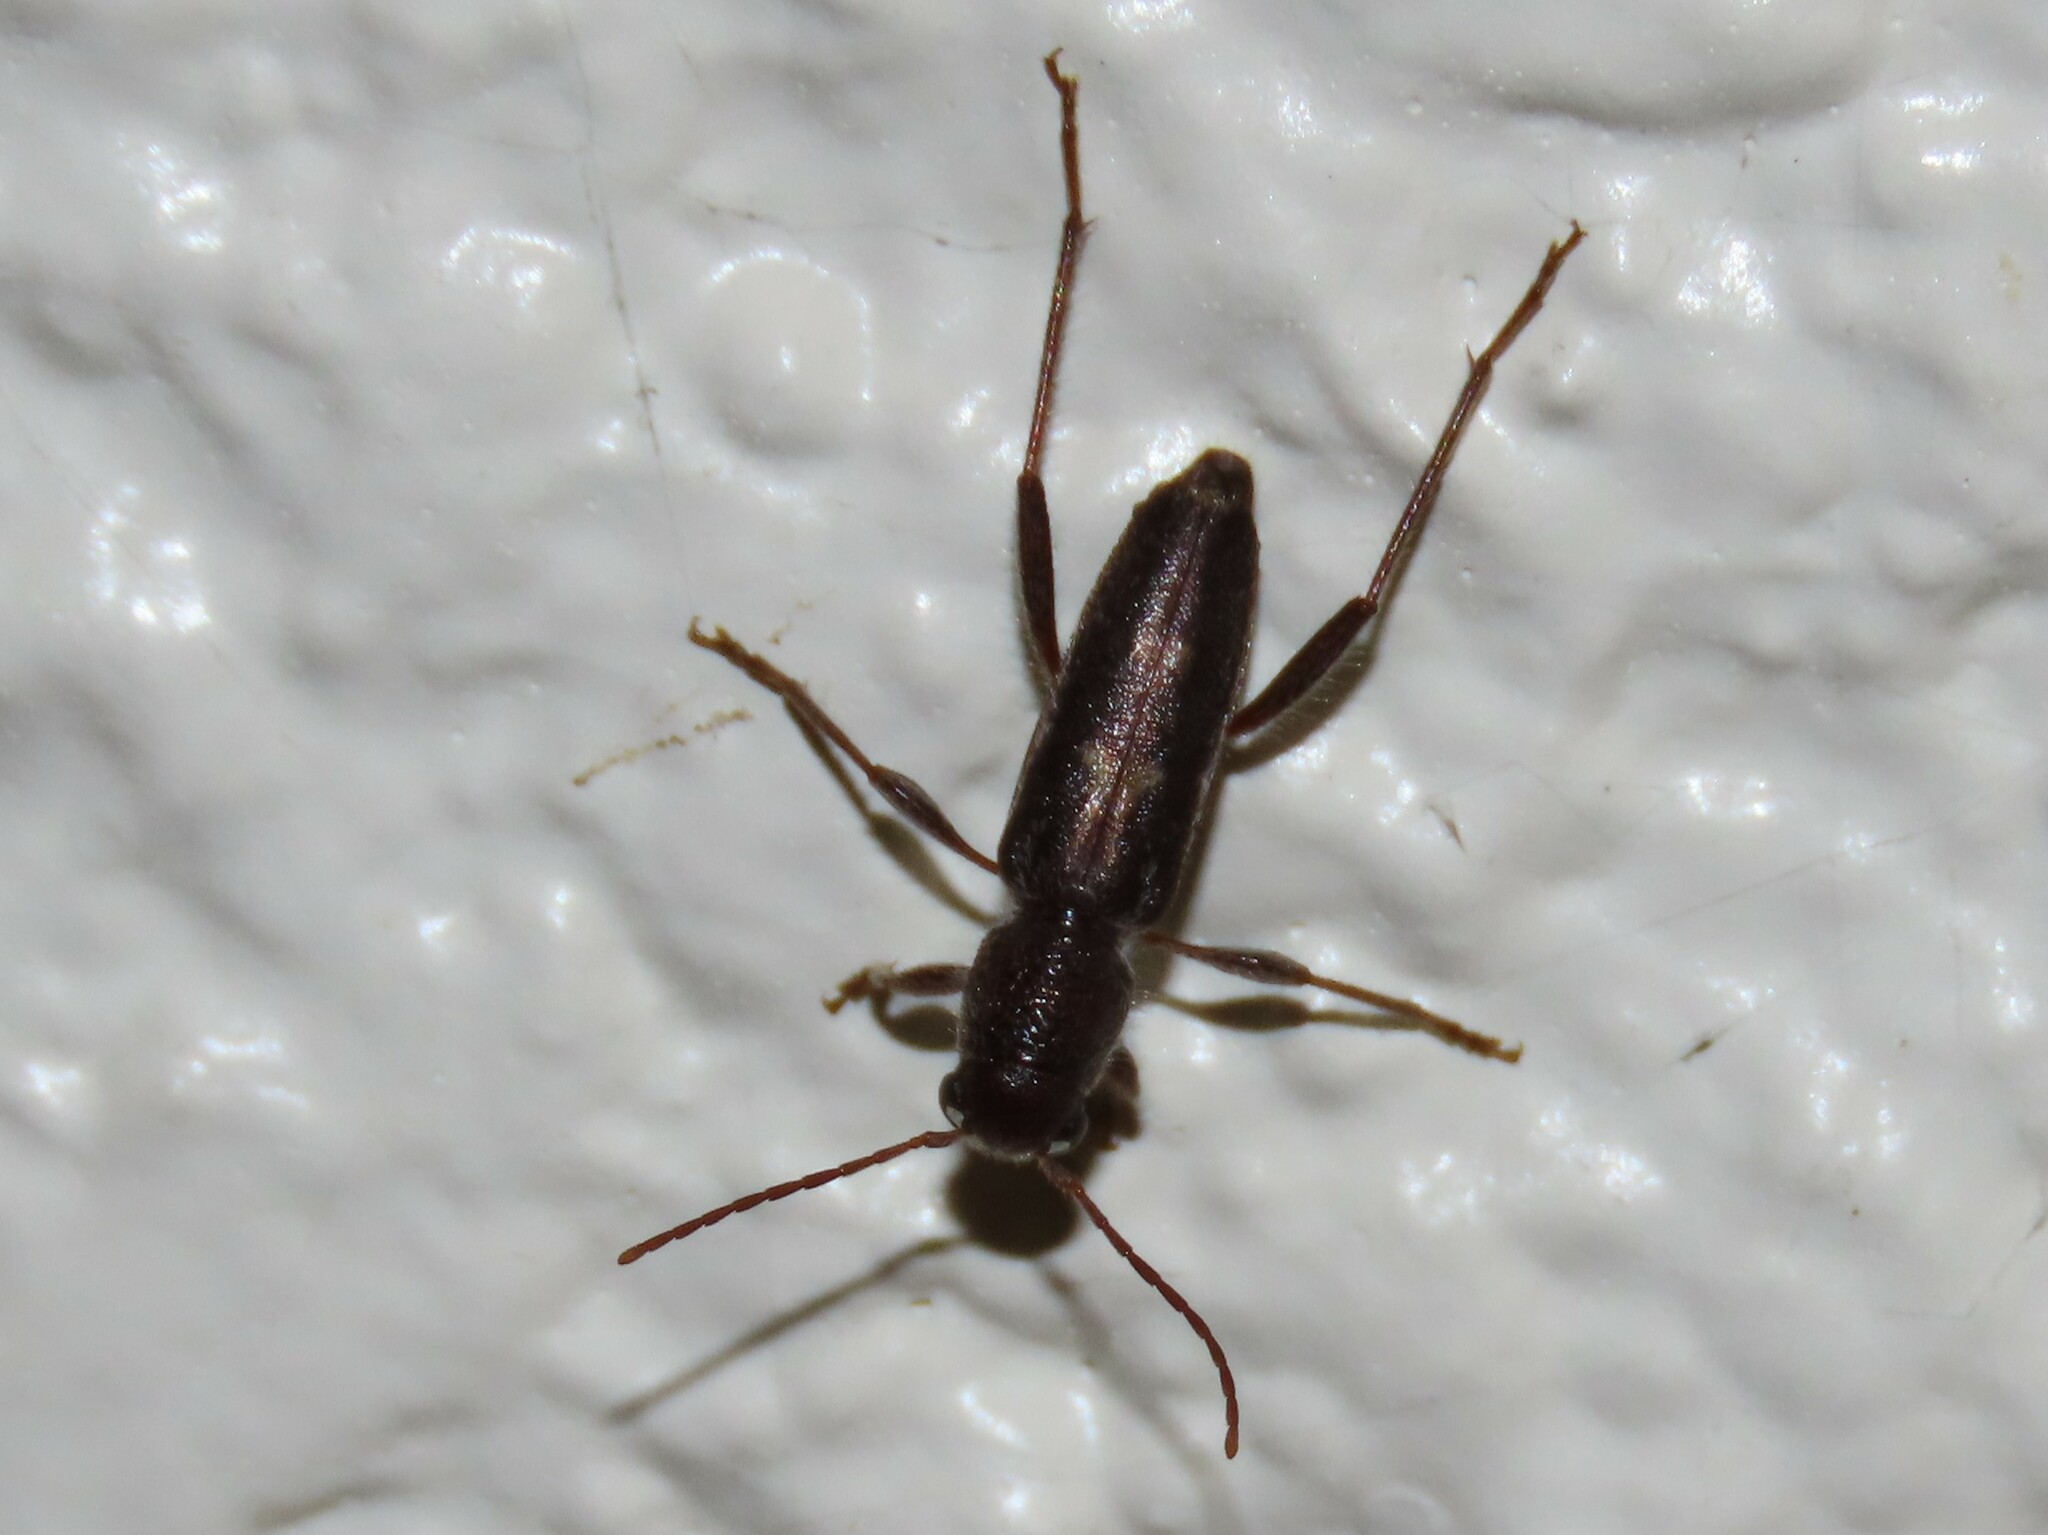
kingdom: Animalia
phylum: Arthropoda
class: Insecta
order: Coleoptera
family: Cerambycidae
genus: Xylotrechus
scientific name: Xylotrechus sagittatus
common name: Arrowhead borer
